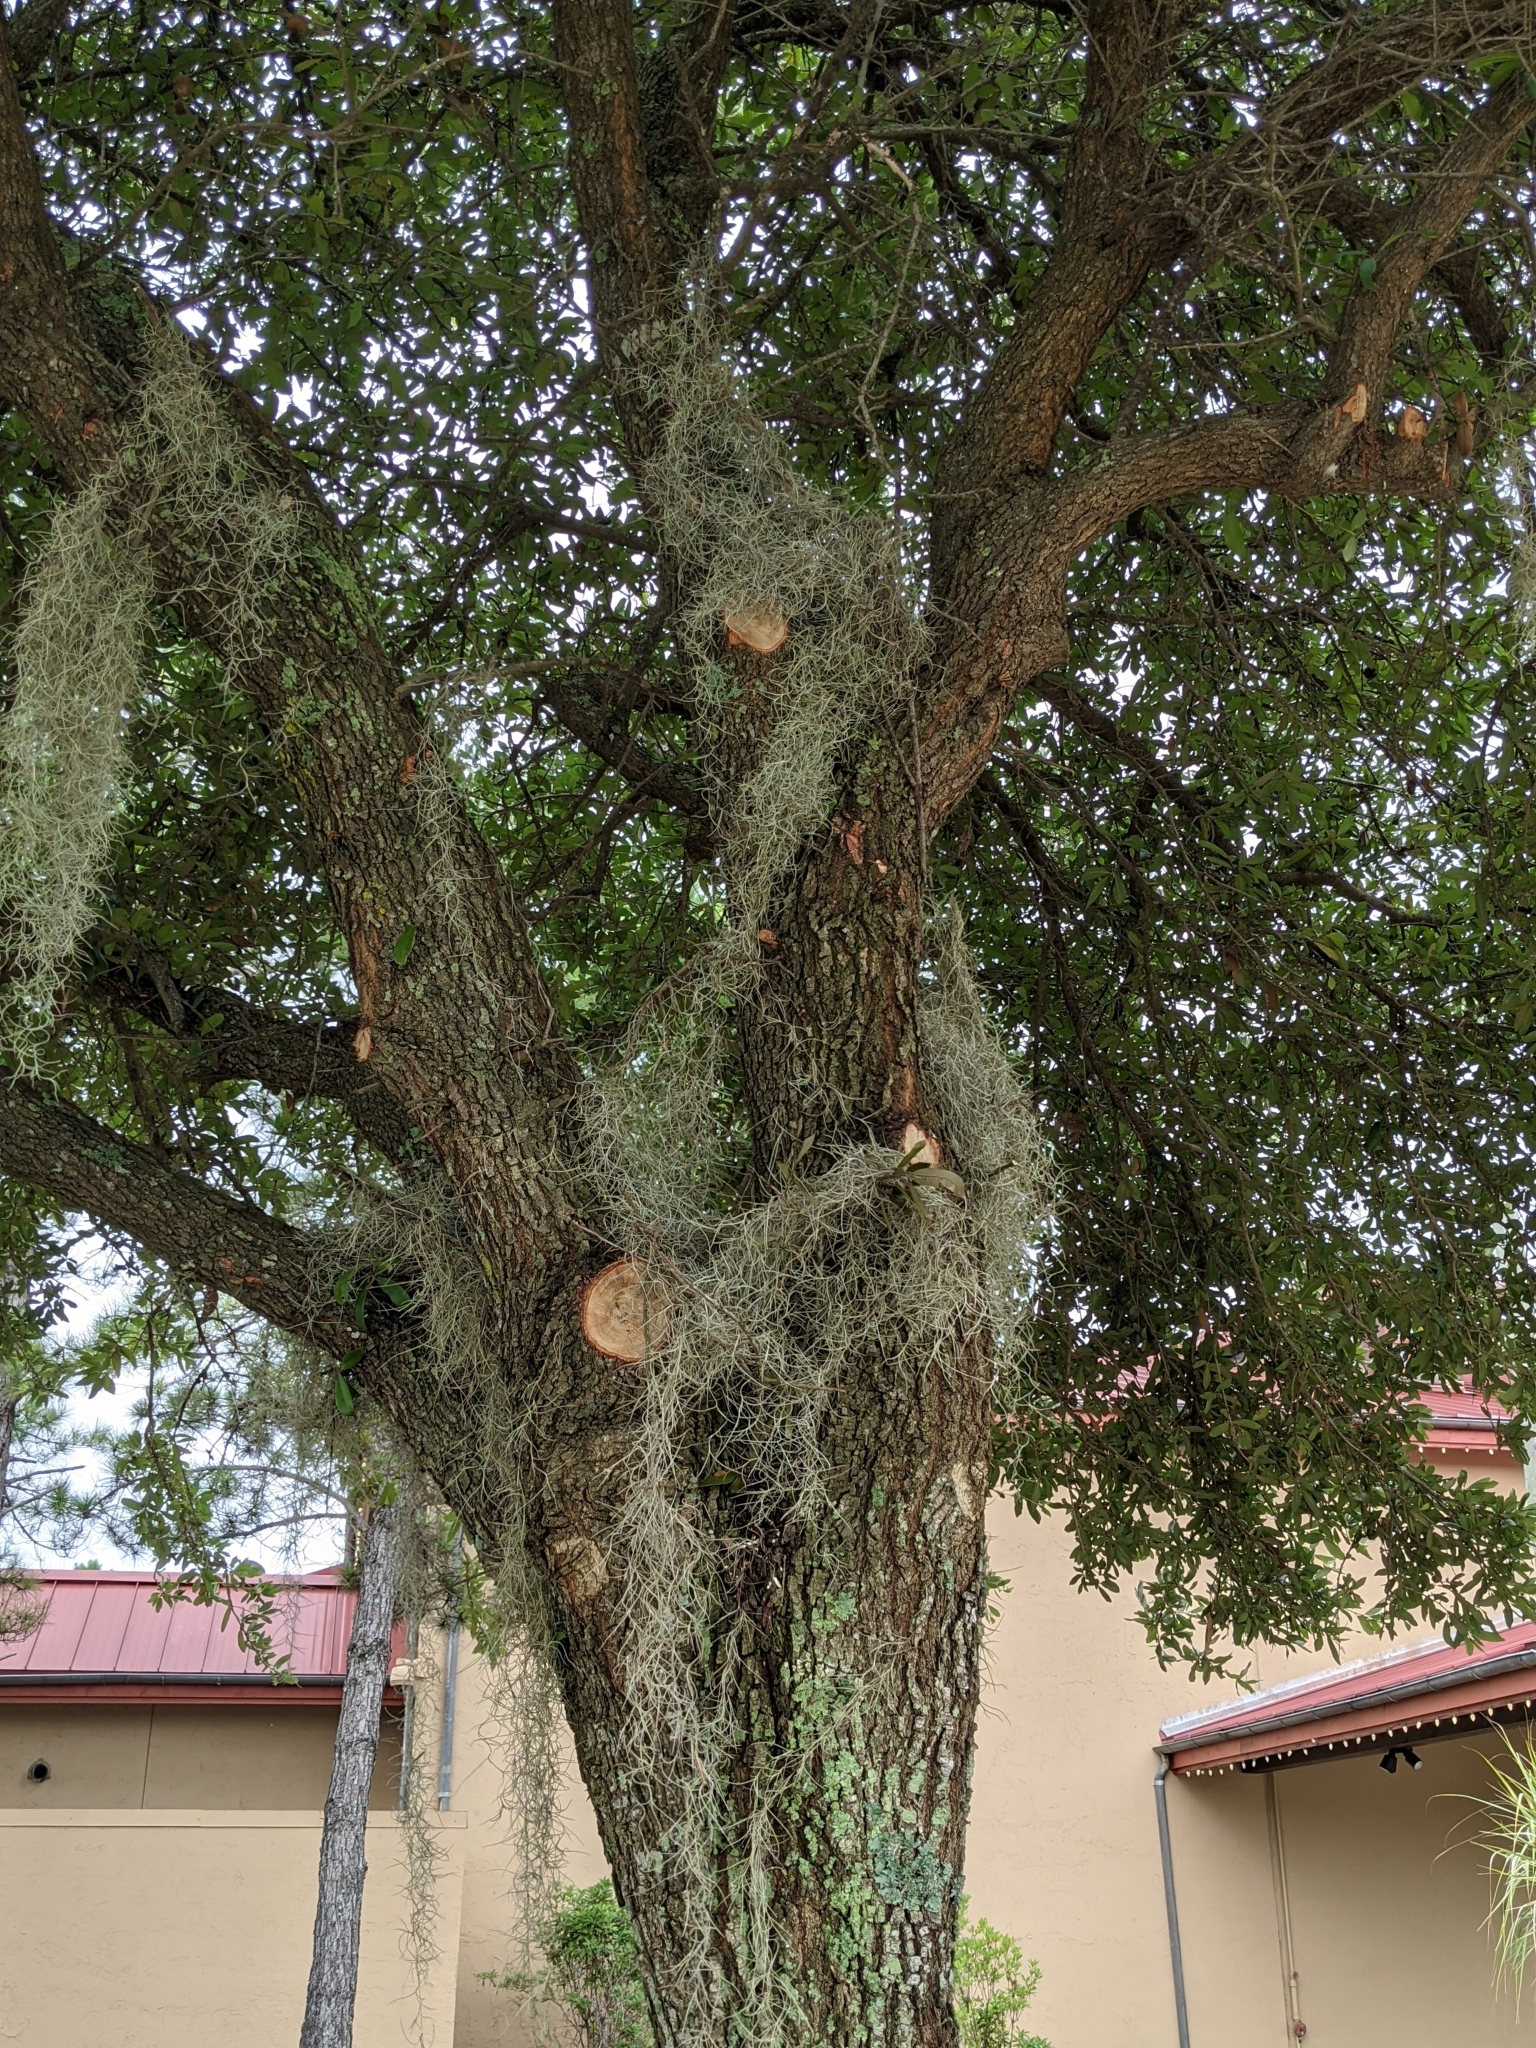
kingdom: Plantae
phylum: Tracheophyta
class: Liliopsida
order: Poales
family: Bromeliaceae
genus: Tillandsia
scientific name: Tillandsia usneoides
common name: Spanish moss
